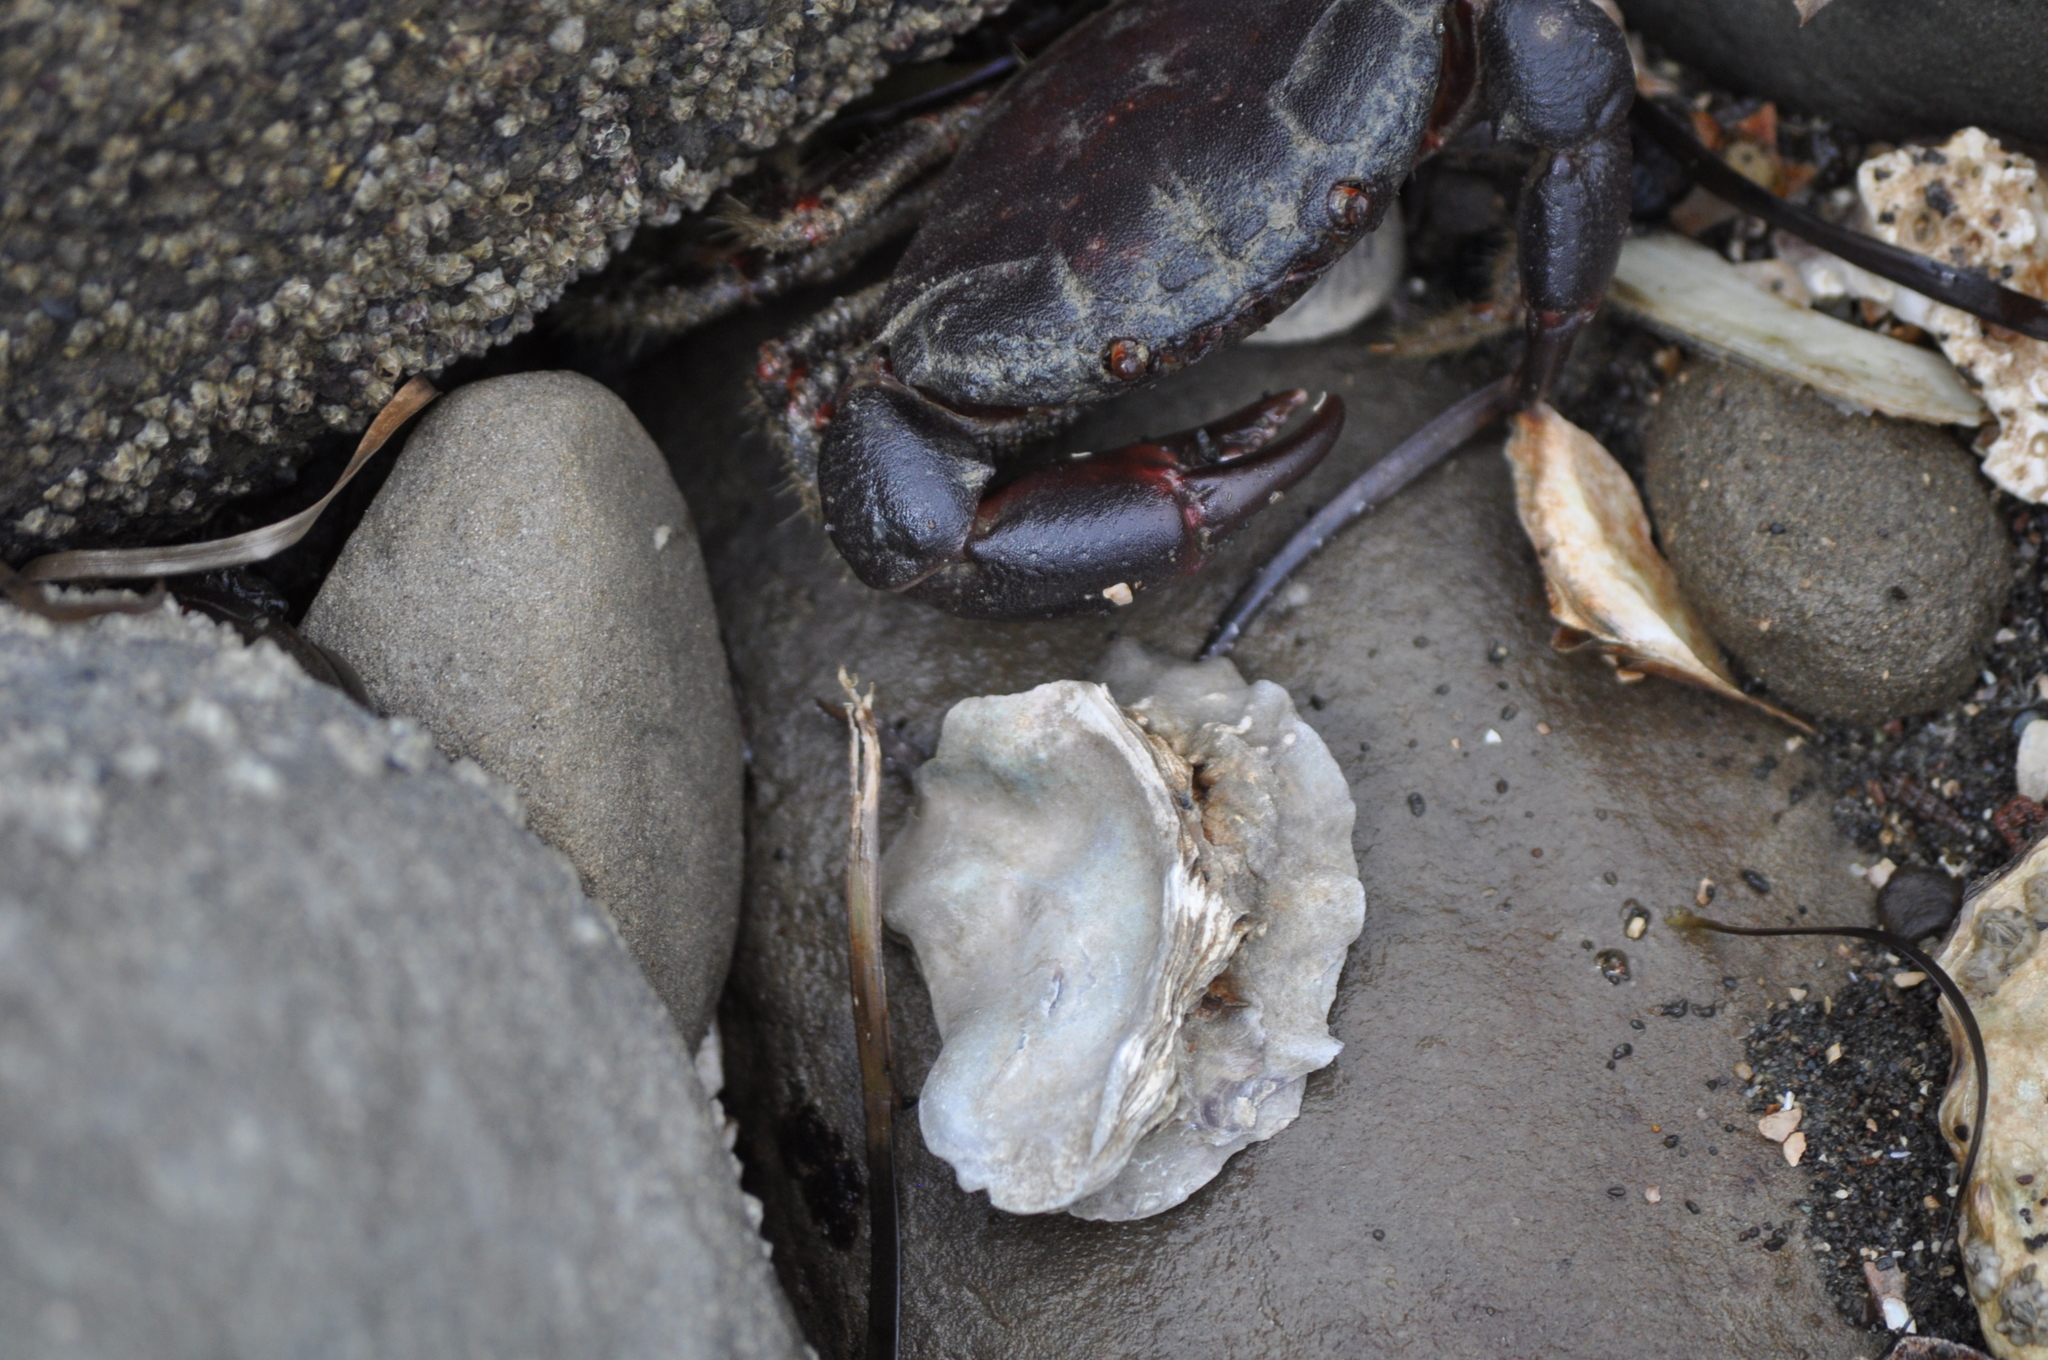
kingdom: Animalia
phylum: Arthropoda
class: Malacostraca
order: Decapoda
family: Oziidae
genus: Ozius
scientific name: Ozius deplanatus
